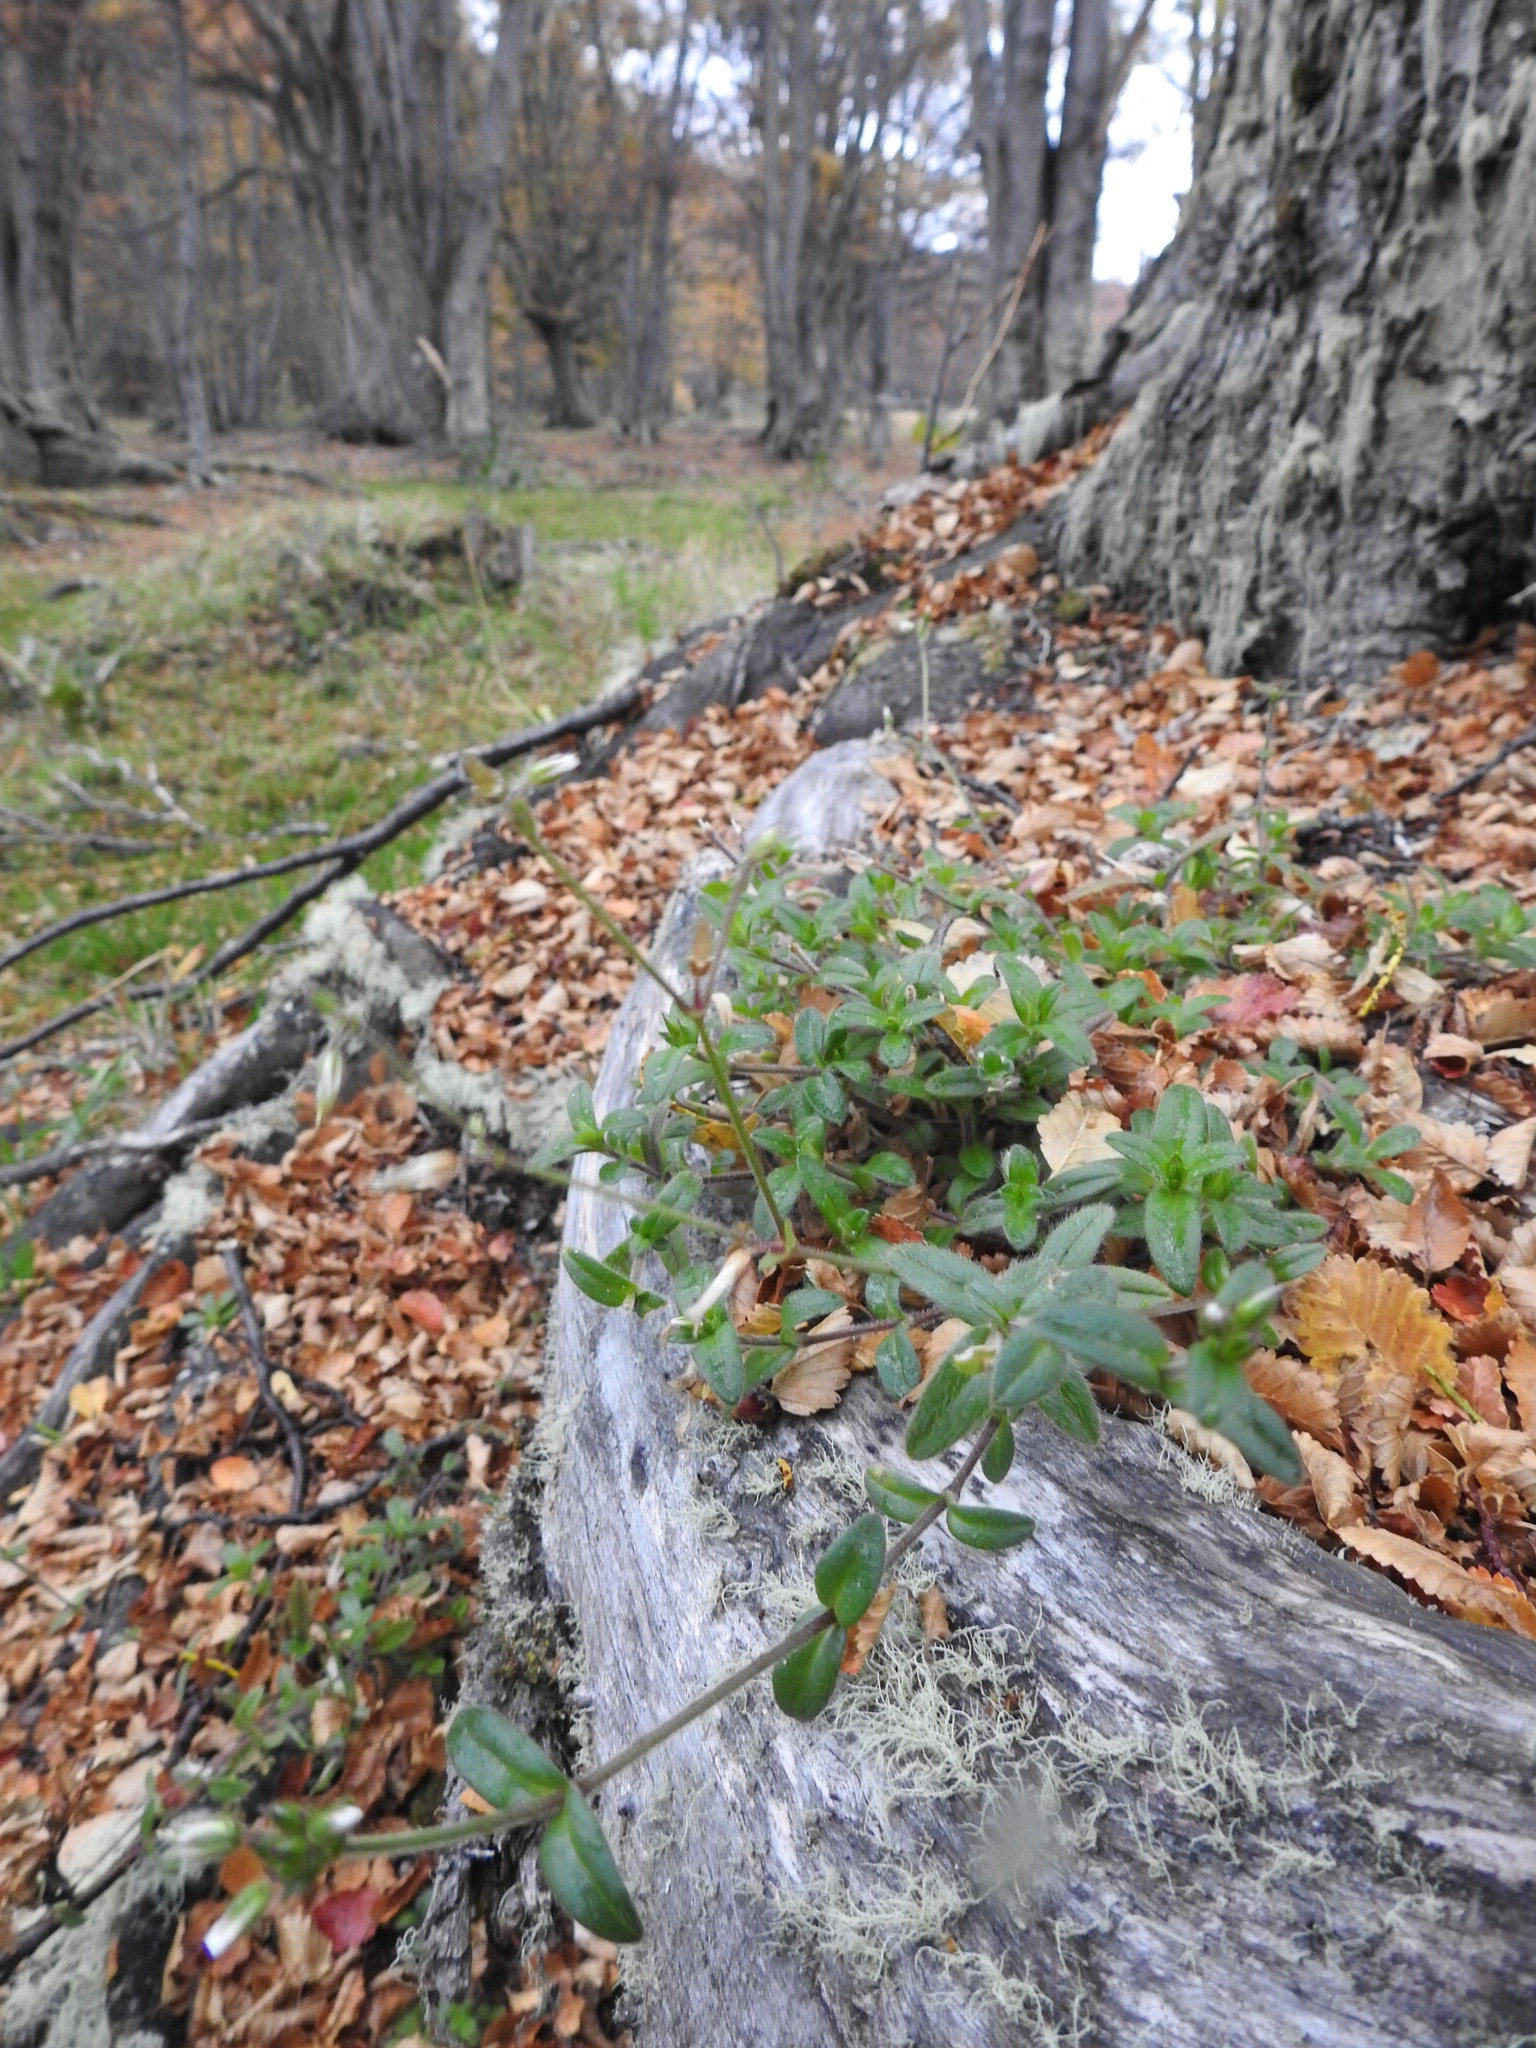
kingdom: Plantae
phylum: Tracheophyta
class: Magnoliopsida
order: Caryophyllales
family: Caryophyllaceae
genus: Cerastium
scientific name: Cerastium fontanum
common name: Common mouse-ear
